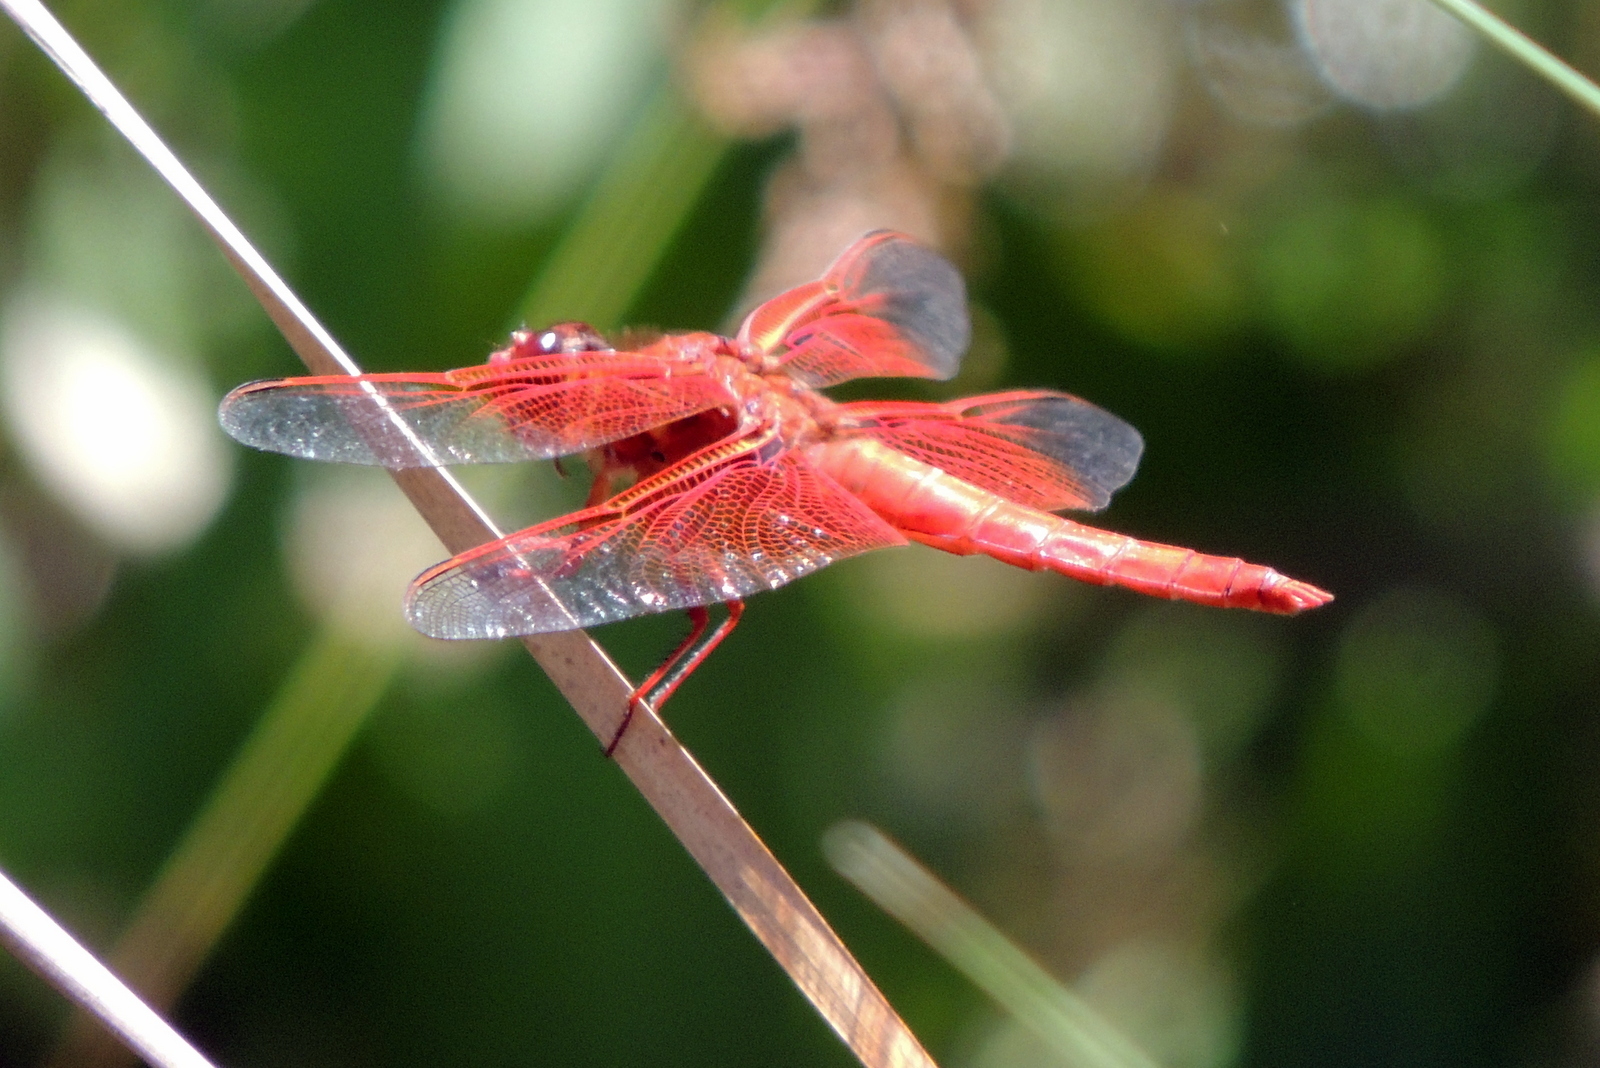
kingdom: Animalia
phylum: Arthropoda
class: Insecta
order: Odonata
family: Libellulidae
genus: Libellula
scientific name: Libellula saturata
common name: Flame skimmer
